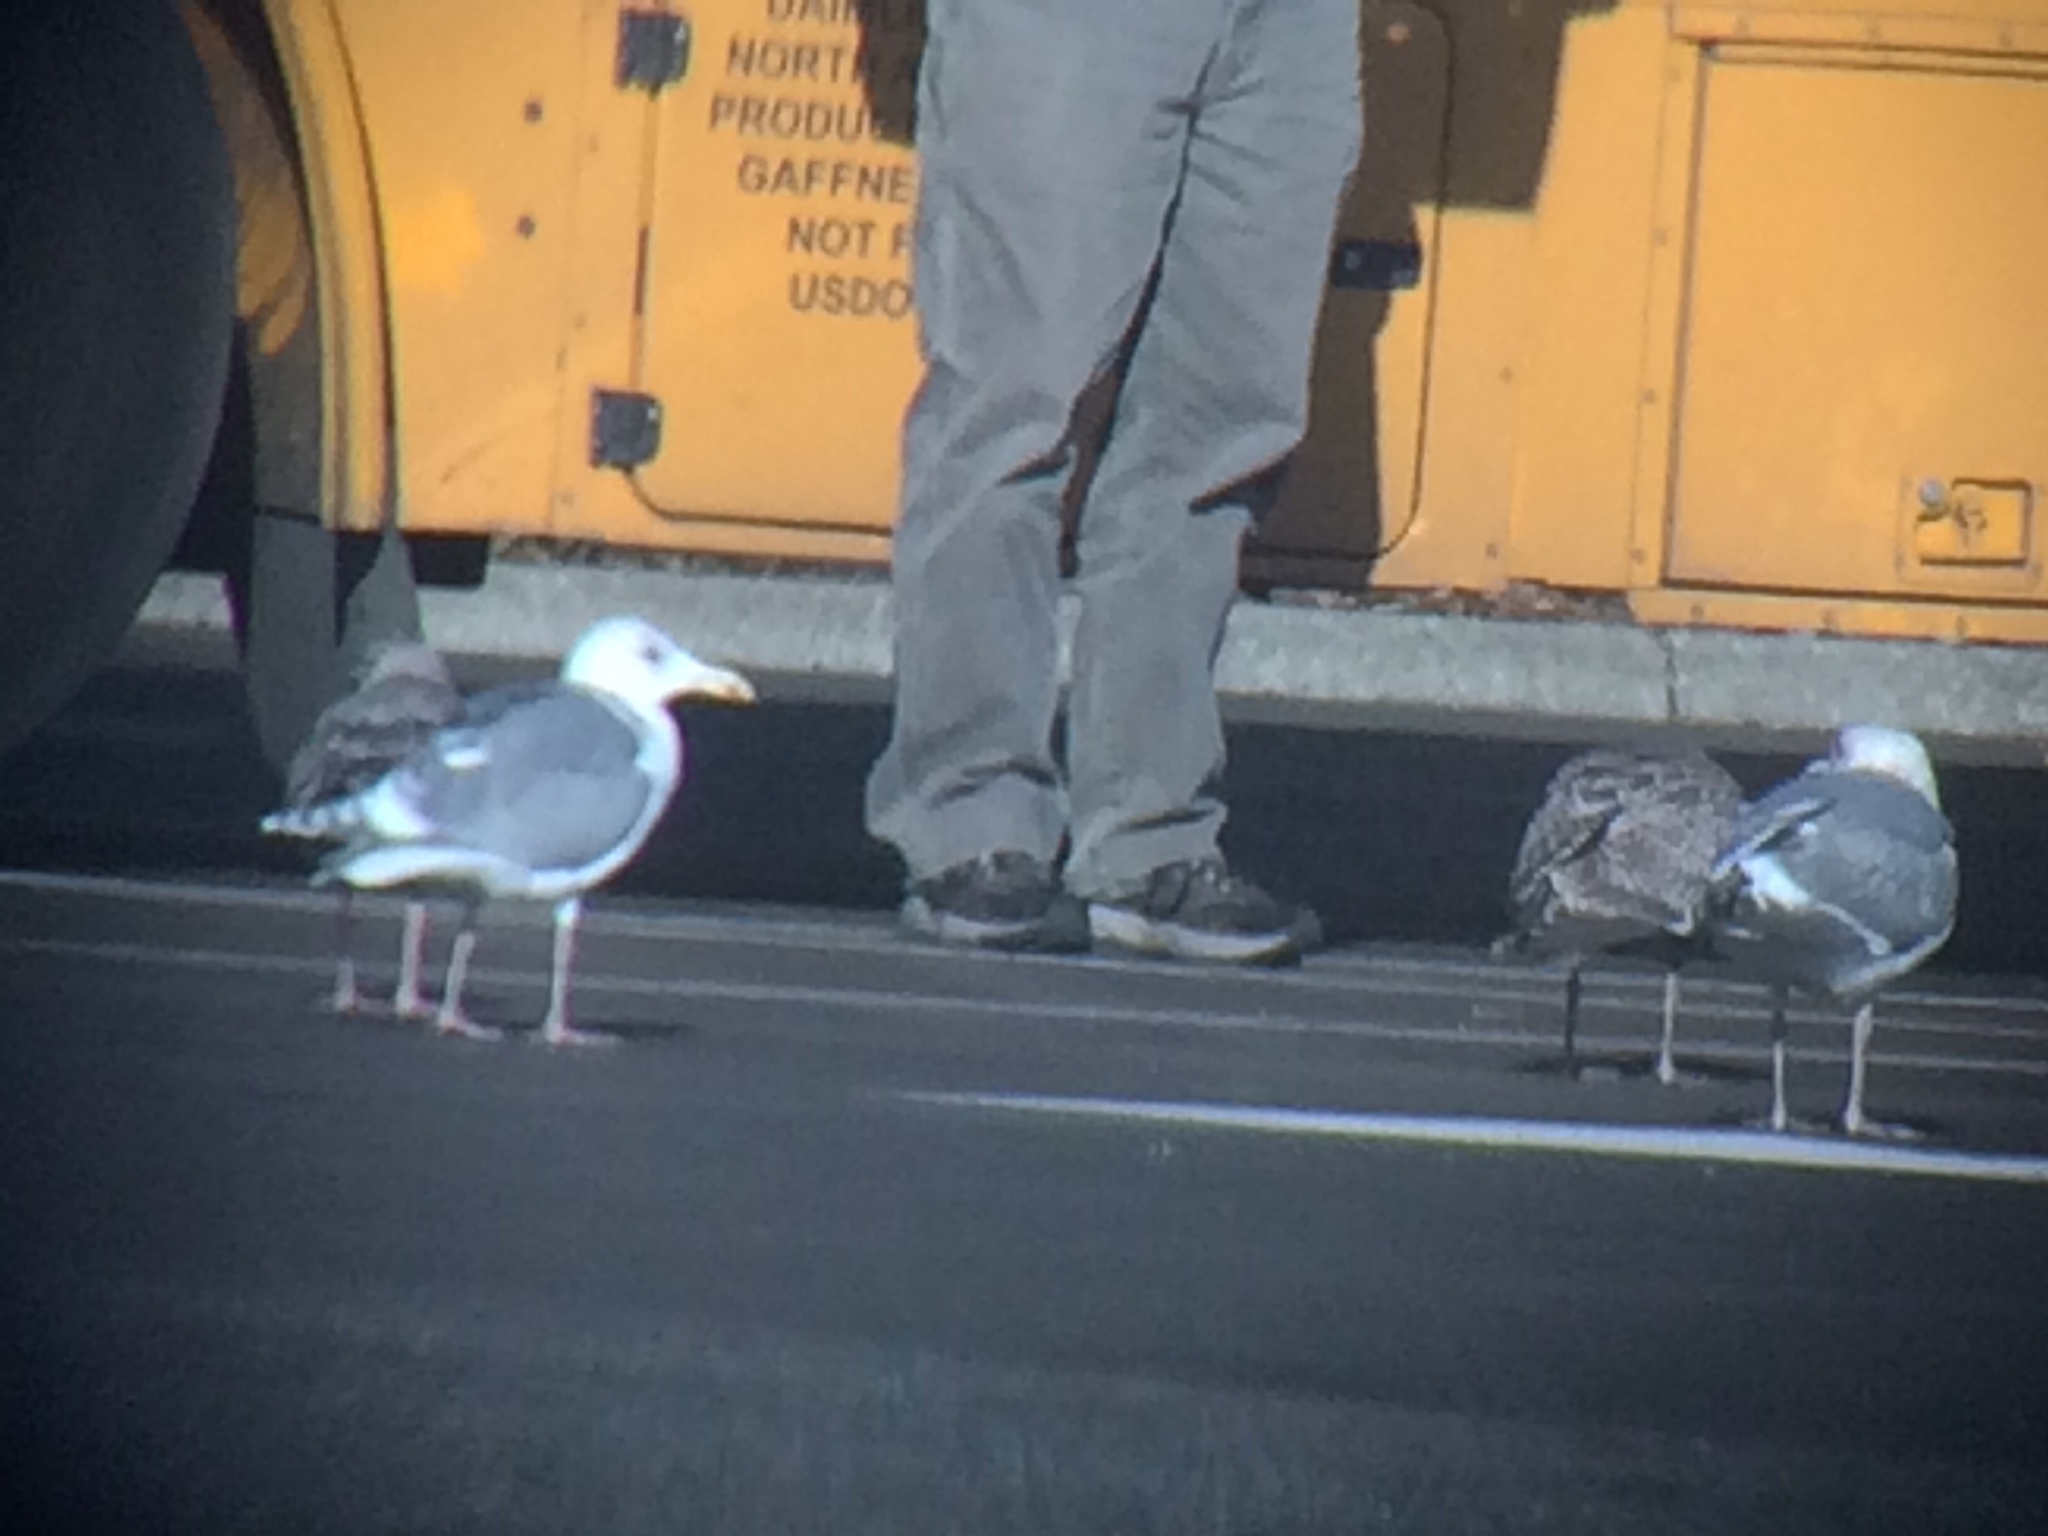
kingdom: Animalia
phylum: Chordata
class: Aves
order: Charadriiformes
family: Laridae
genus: Larus
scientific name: Larus
